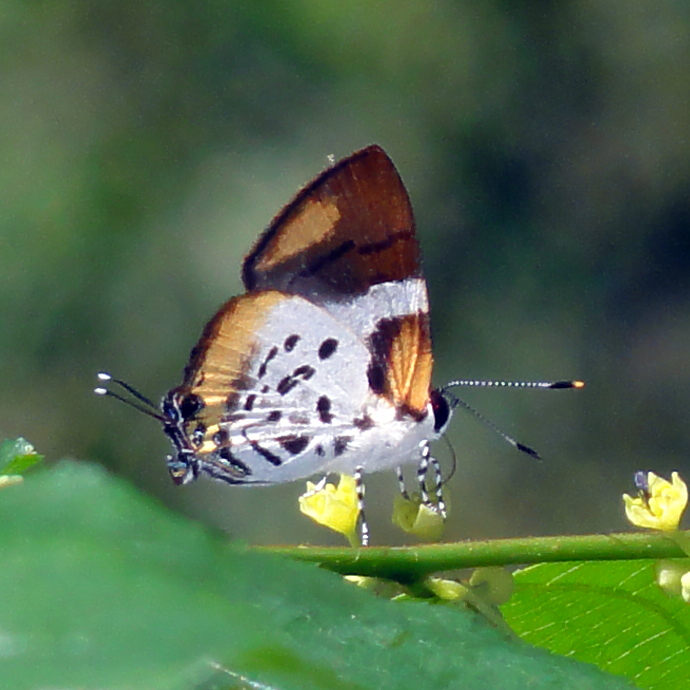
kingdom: Animalia
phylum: Arthropoda
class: Insecta
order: Lepidoptera
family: Lycaenidae
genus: Araotes
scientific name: Araotes lapithis
